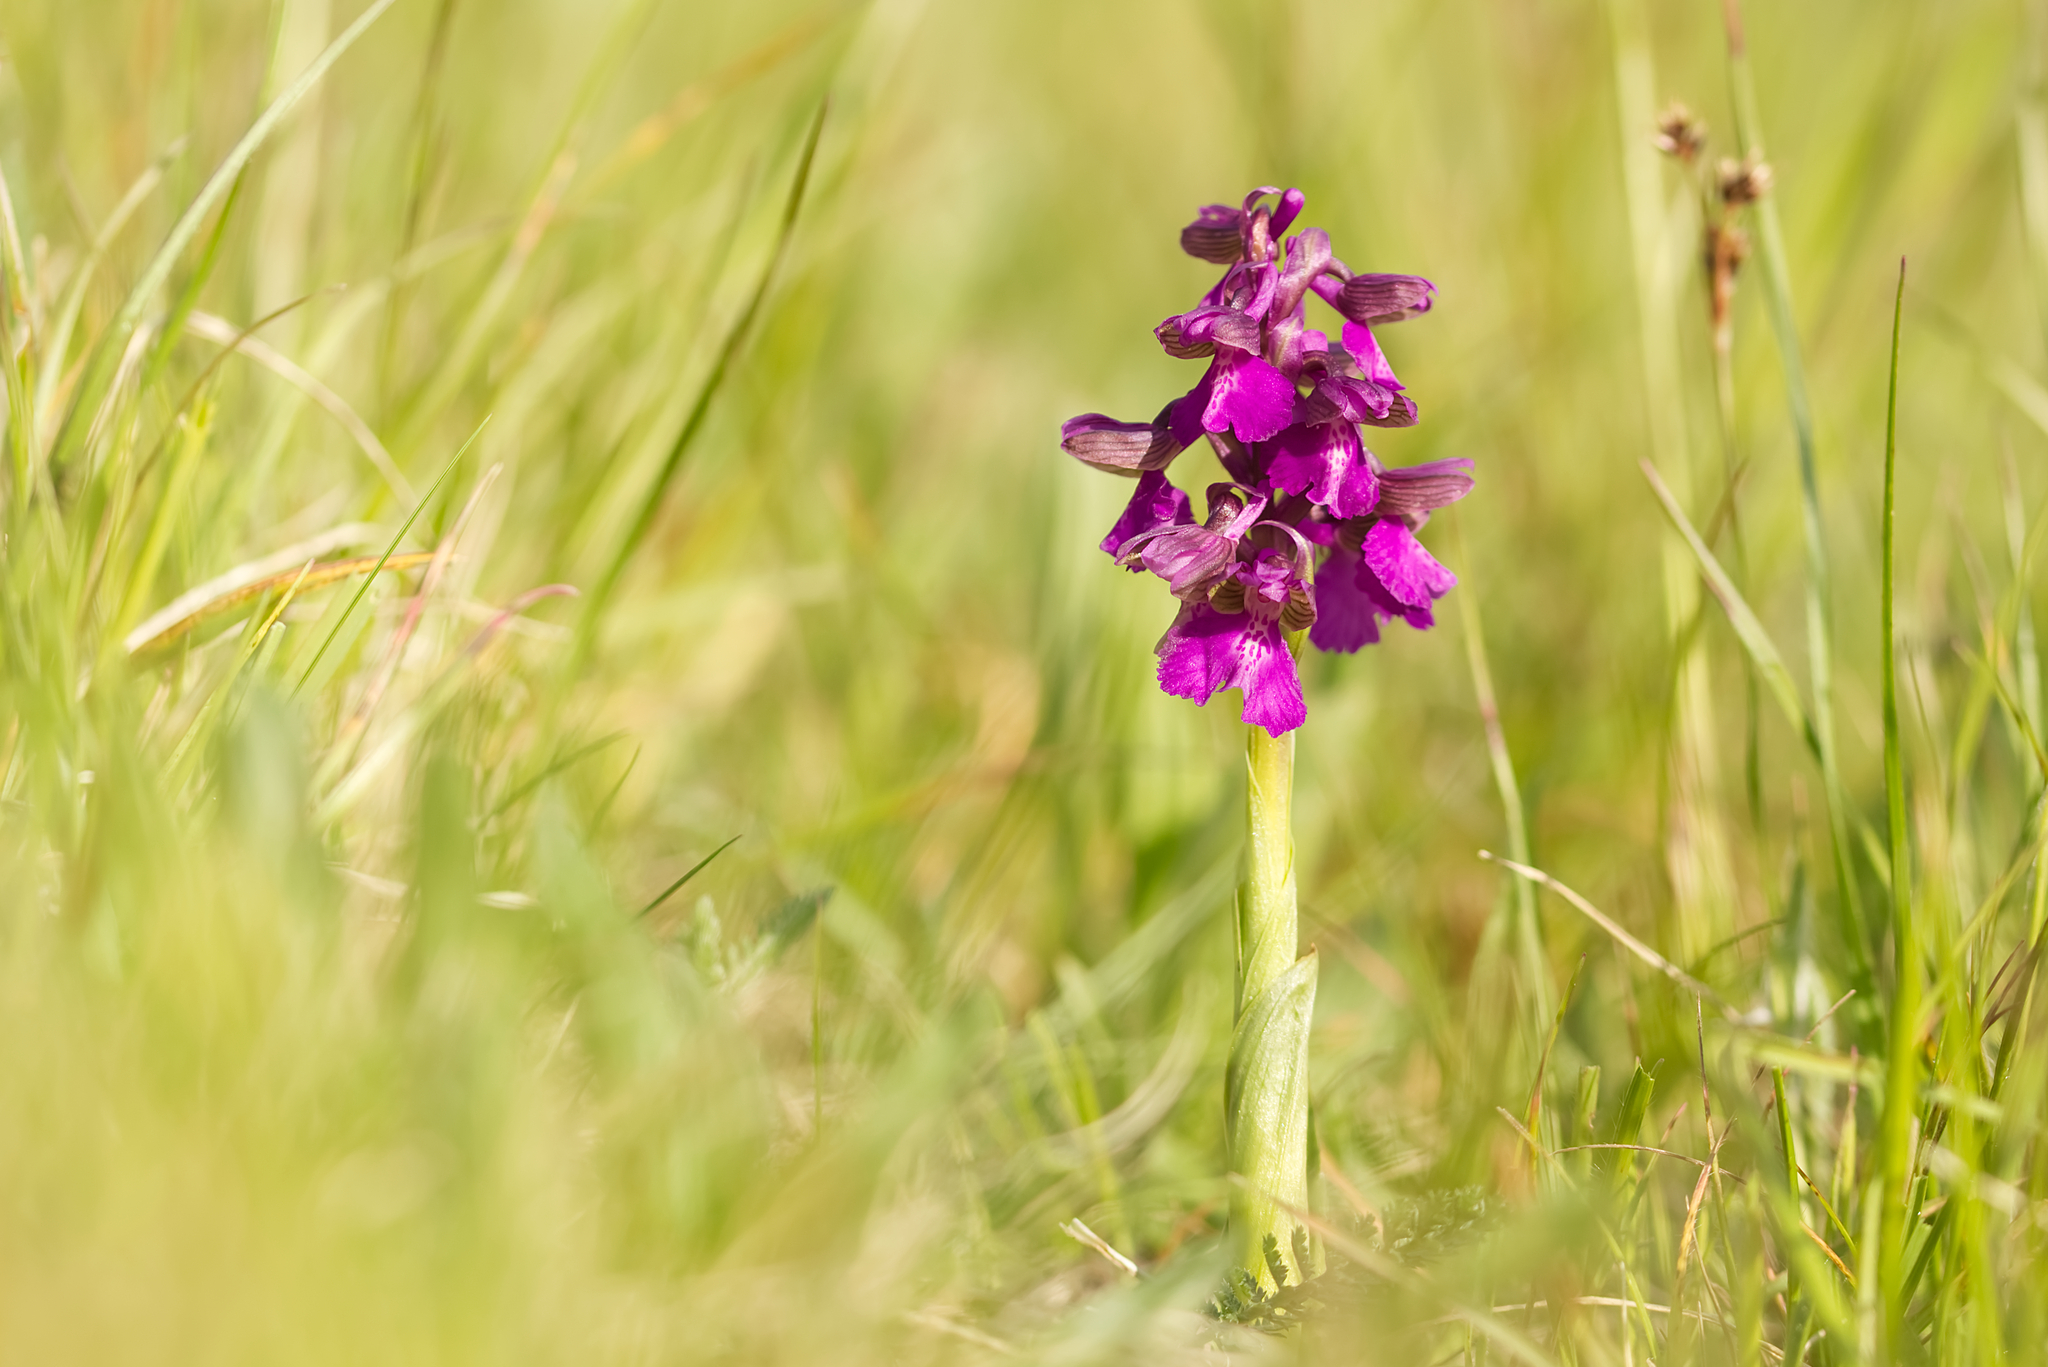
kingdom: Plantae
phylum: Tracheophyta
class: Liliopsida
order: Asparagales
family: Orchidaceae
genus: Anacamptis
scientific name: Anacamptis morio
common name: Green-winged orchid
